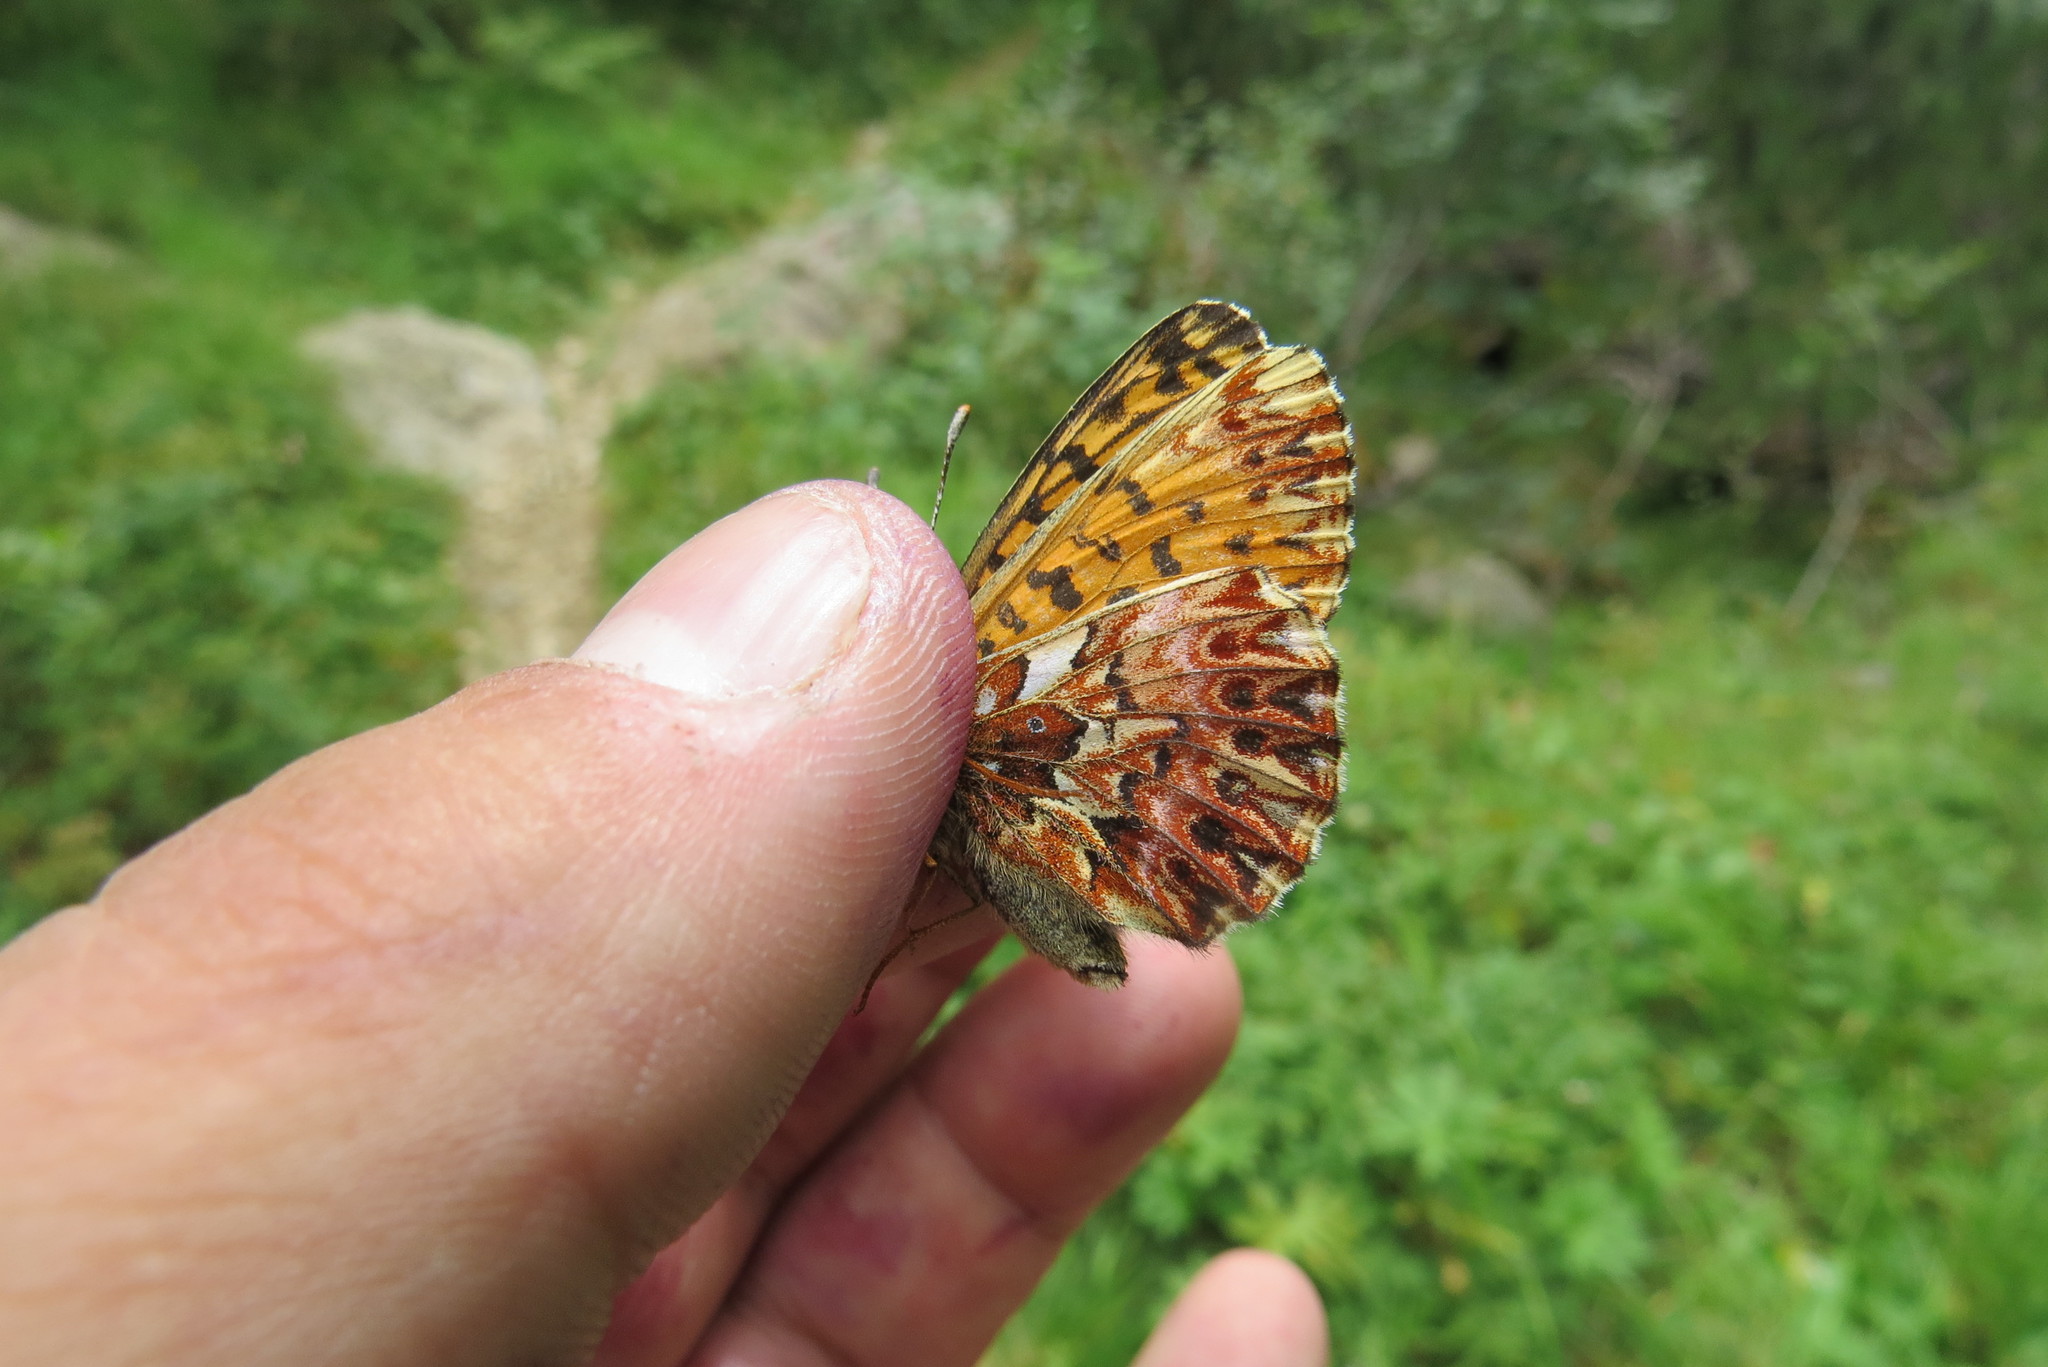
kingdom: Animalia
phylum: Arthropoda
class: Insecta
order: Lepidoptera
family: Nymphalidae
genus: Boloria
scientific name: Boloria titania
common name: Titania's fritillary
